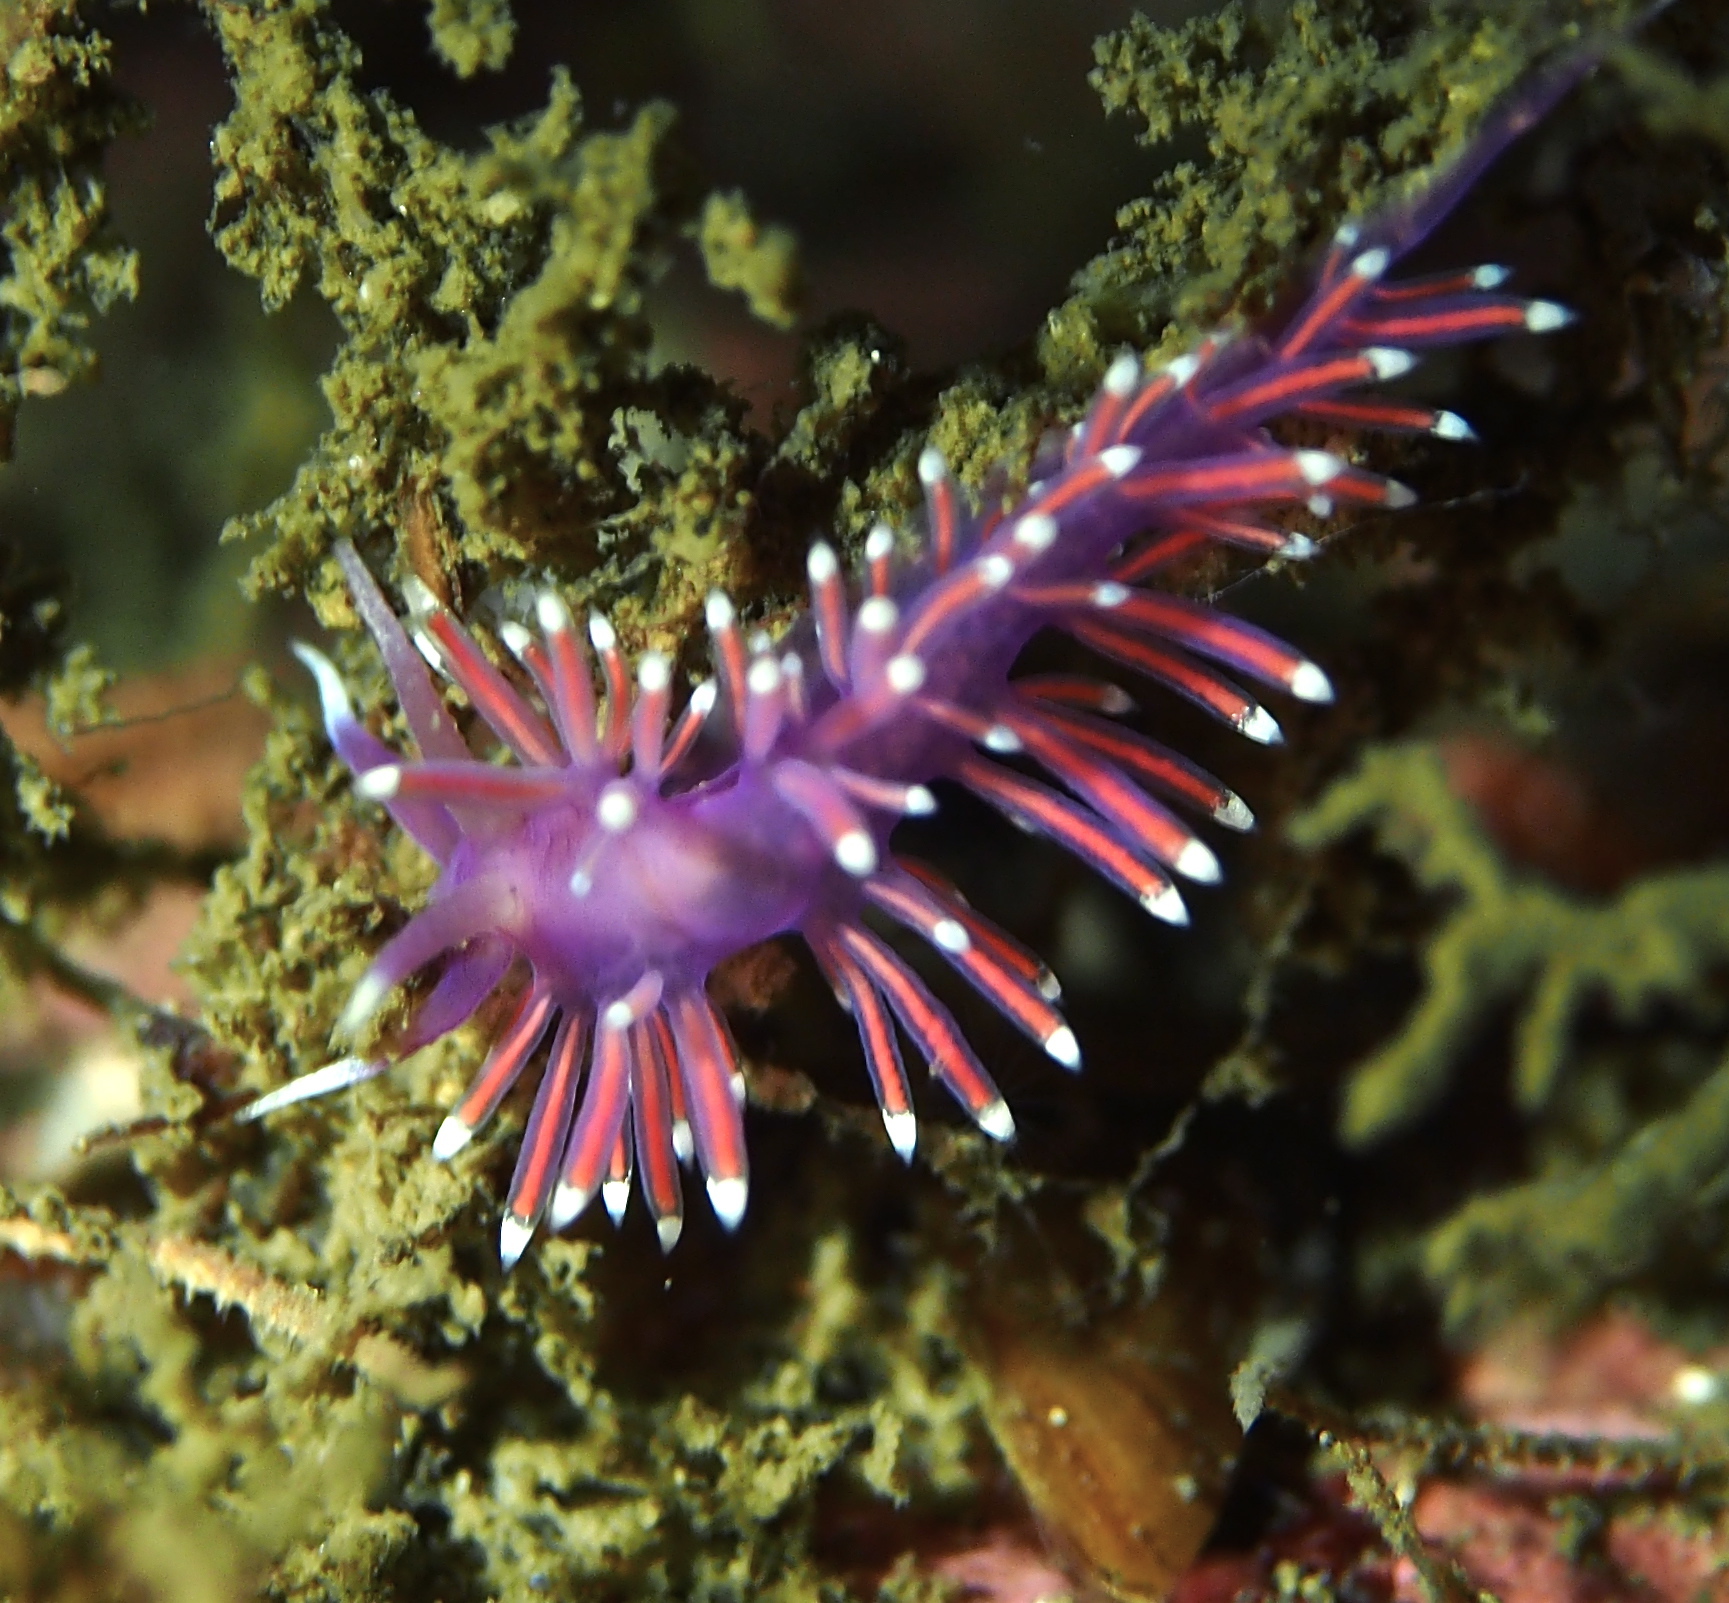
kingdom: Animalia
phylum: Mollusca
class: Gastropoda
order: Nudibranchia
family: Flabellinidae
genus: Edmundsella
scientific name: Edmundsella pedata
